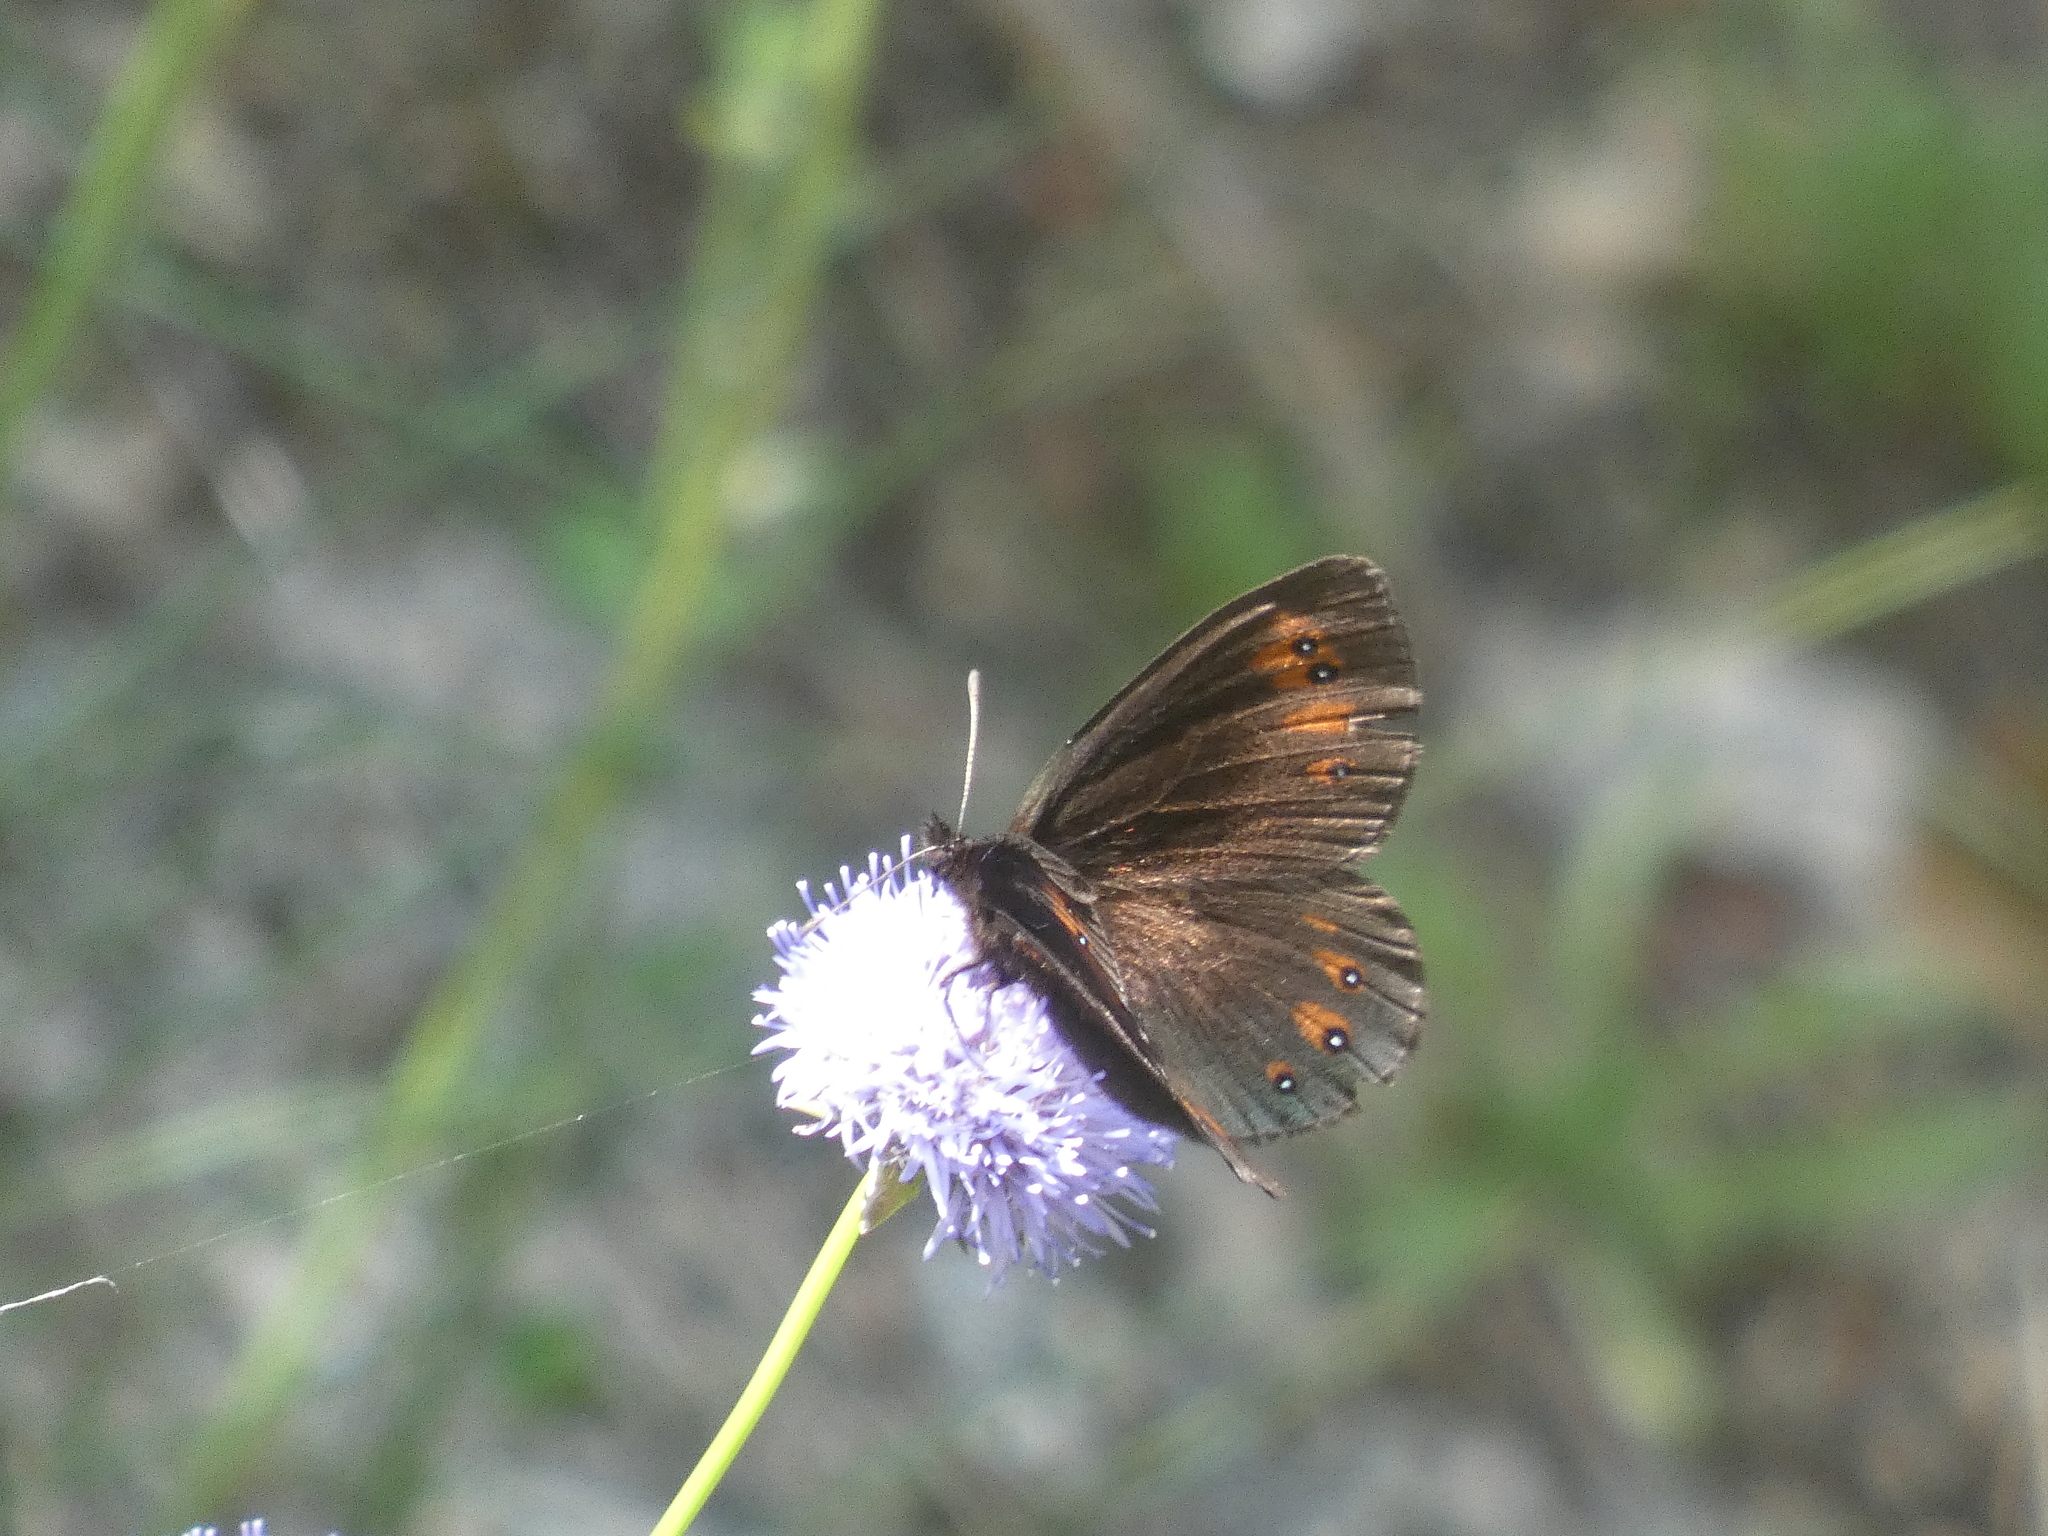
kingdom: Animalia
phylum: Arthropoda
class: Insecta
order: Lepidoptera
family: Nymphalidae
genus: Erebia
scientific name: Erebia meolans
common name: Piedmont ringlet
